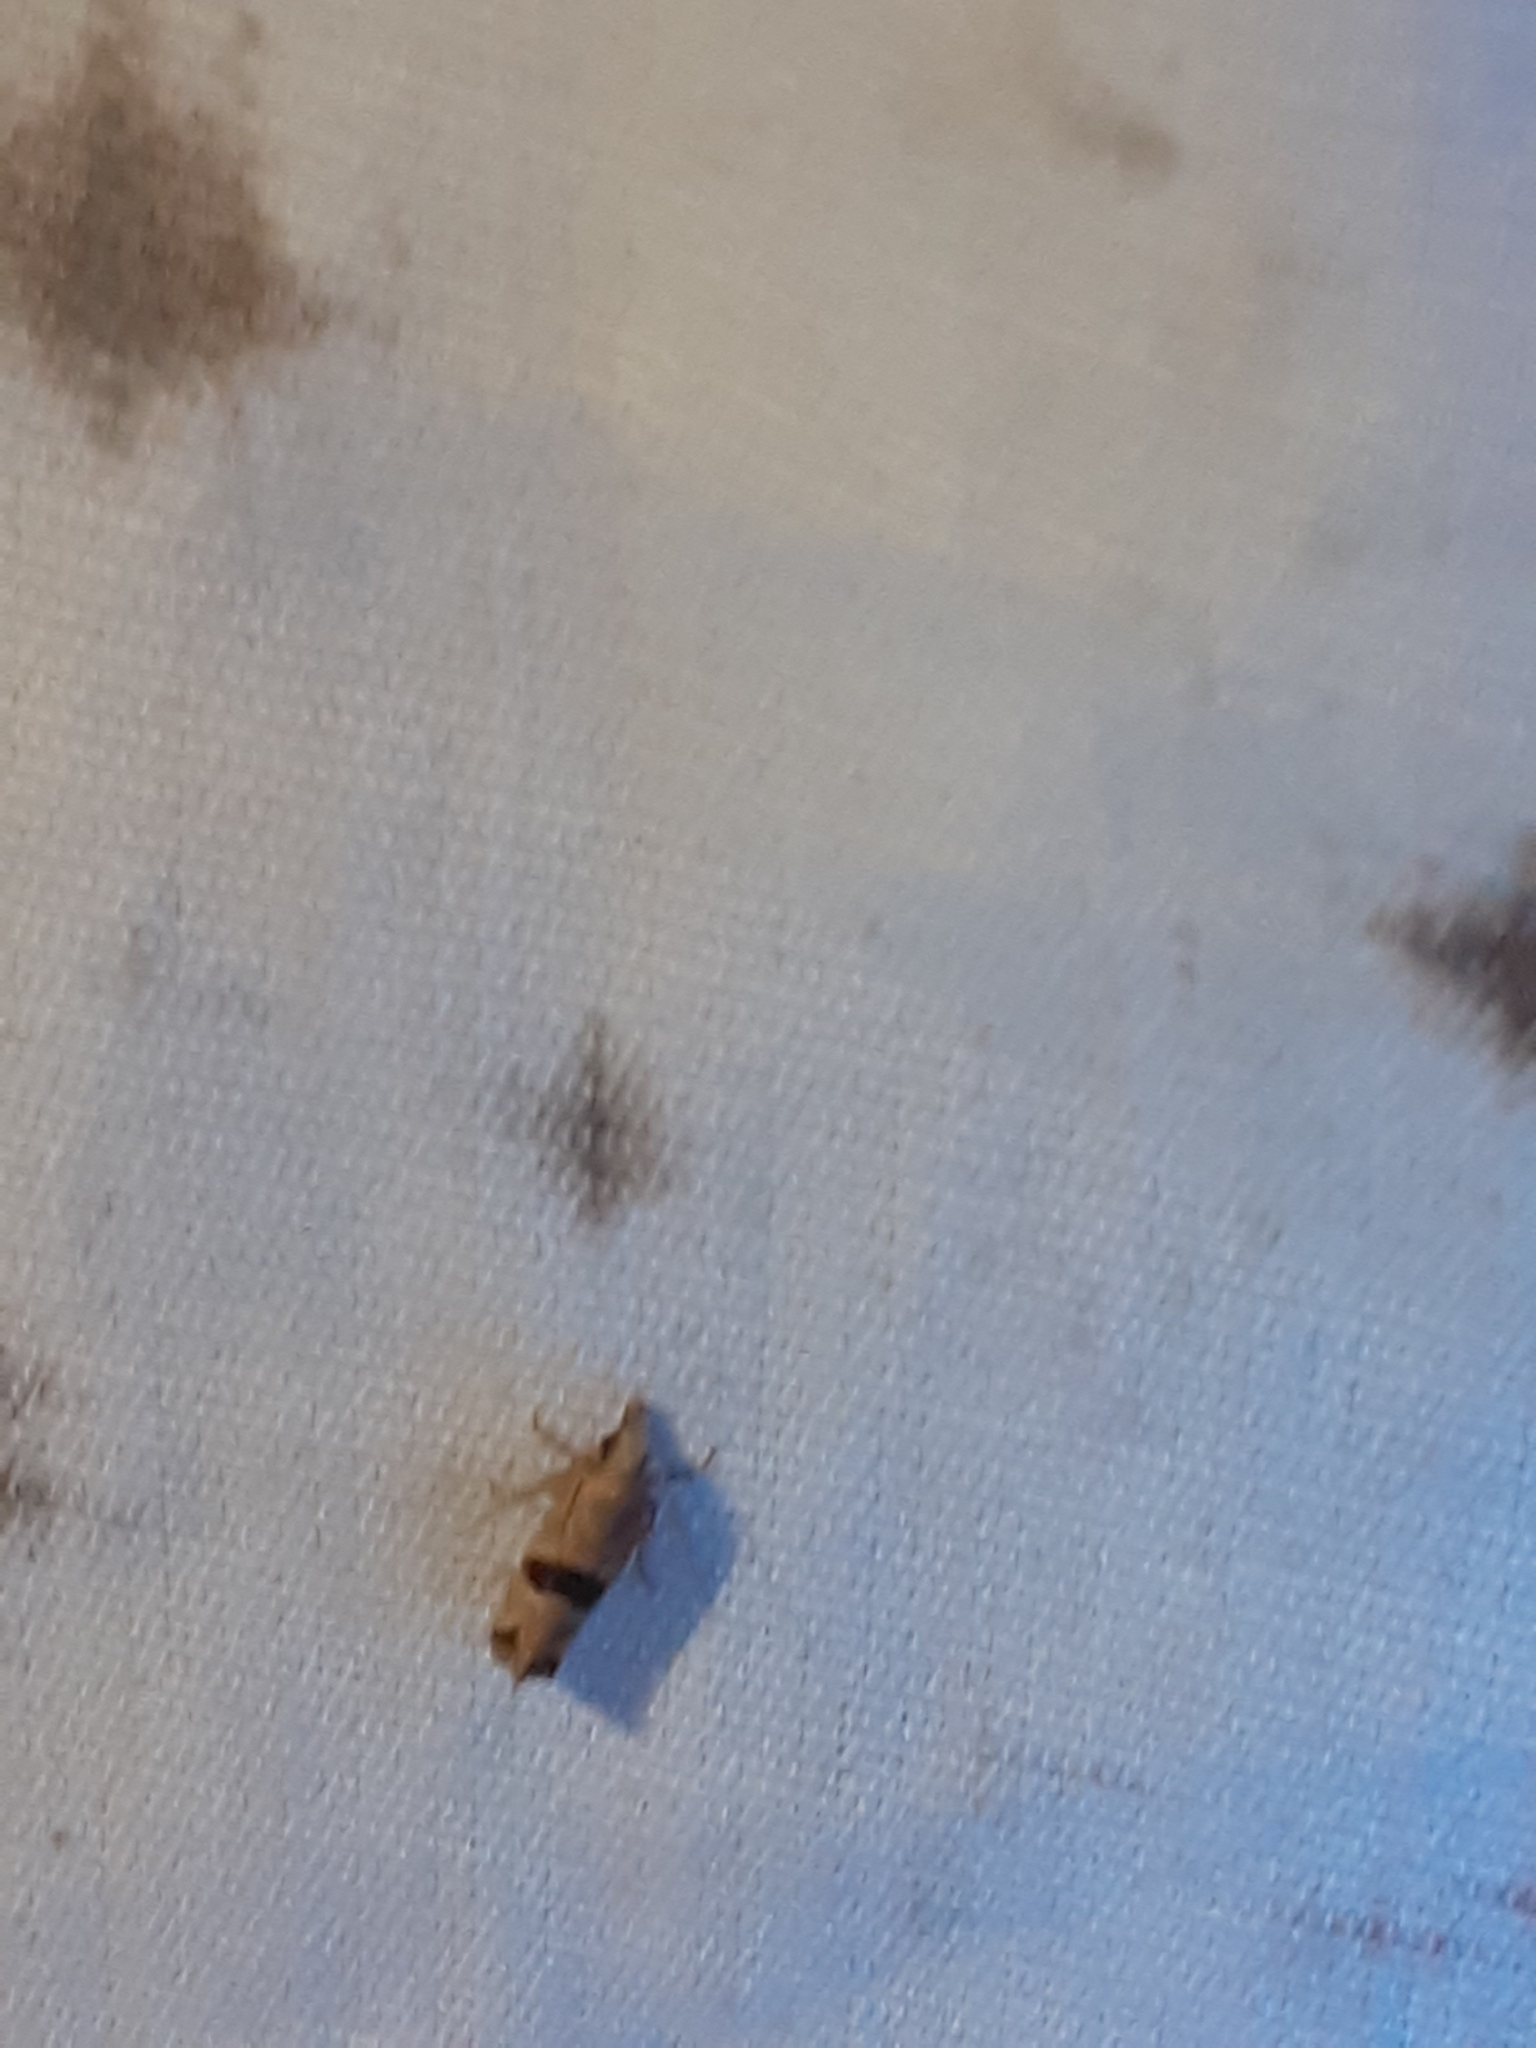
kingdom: Animalia
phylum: Arthropoda
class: Insecta
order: Lepidoptera
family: Tortricidae
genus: Eugnosta
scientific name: Eugnosta sartana
